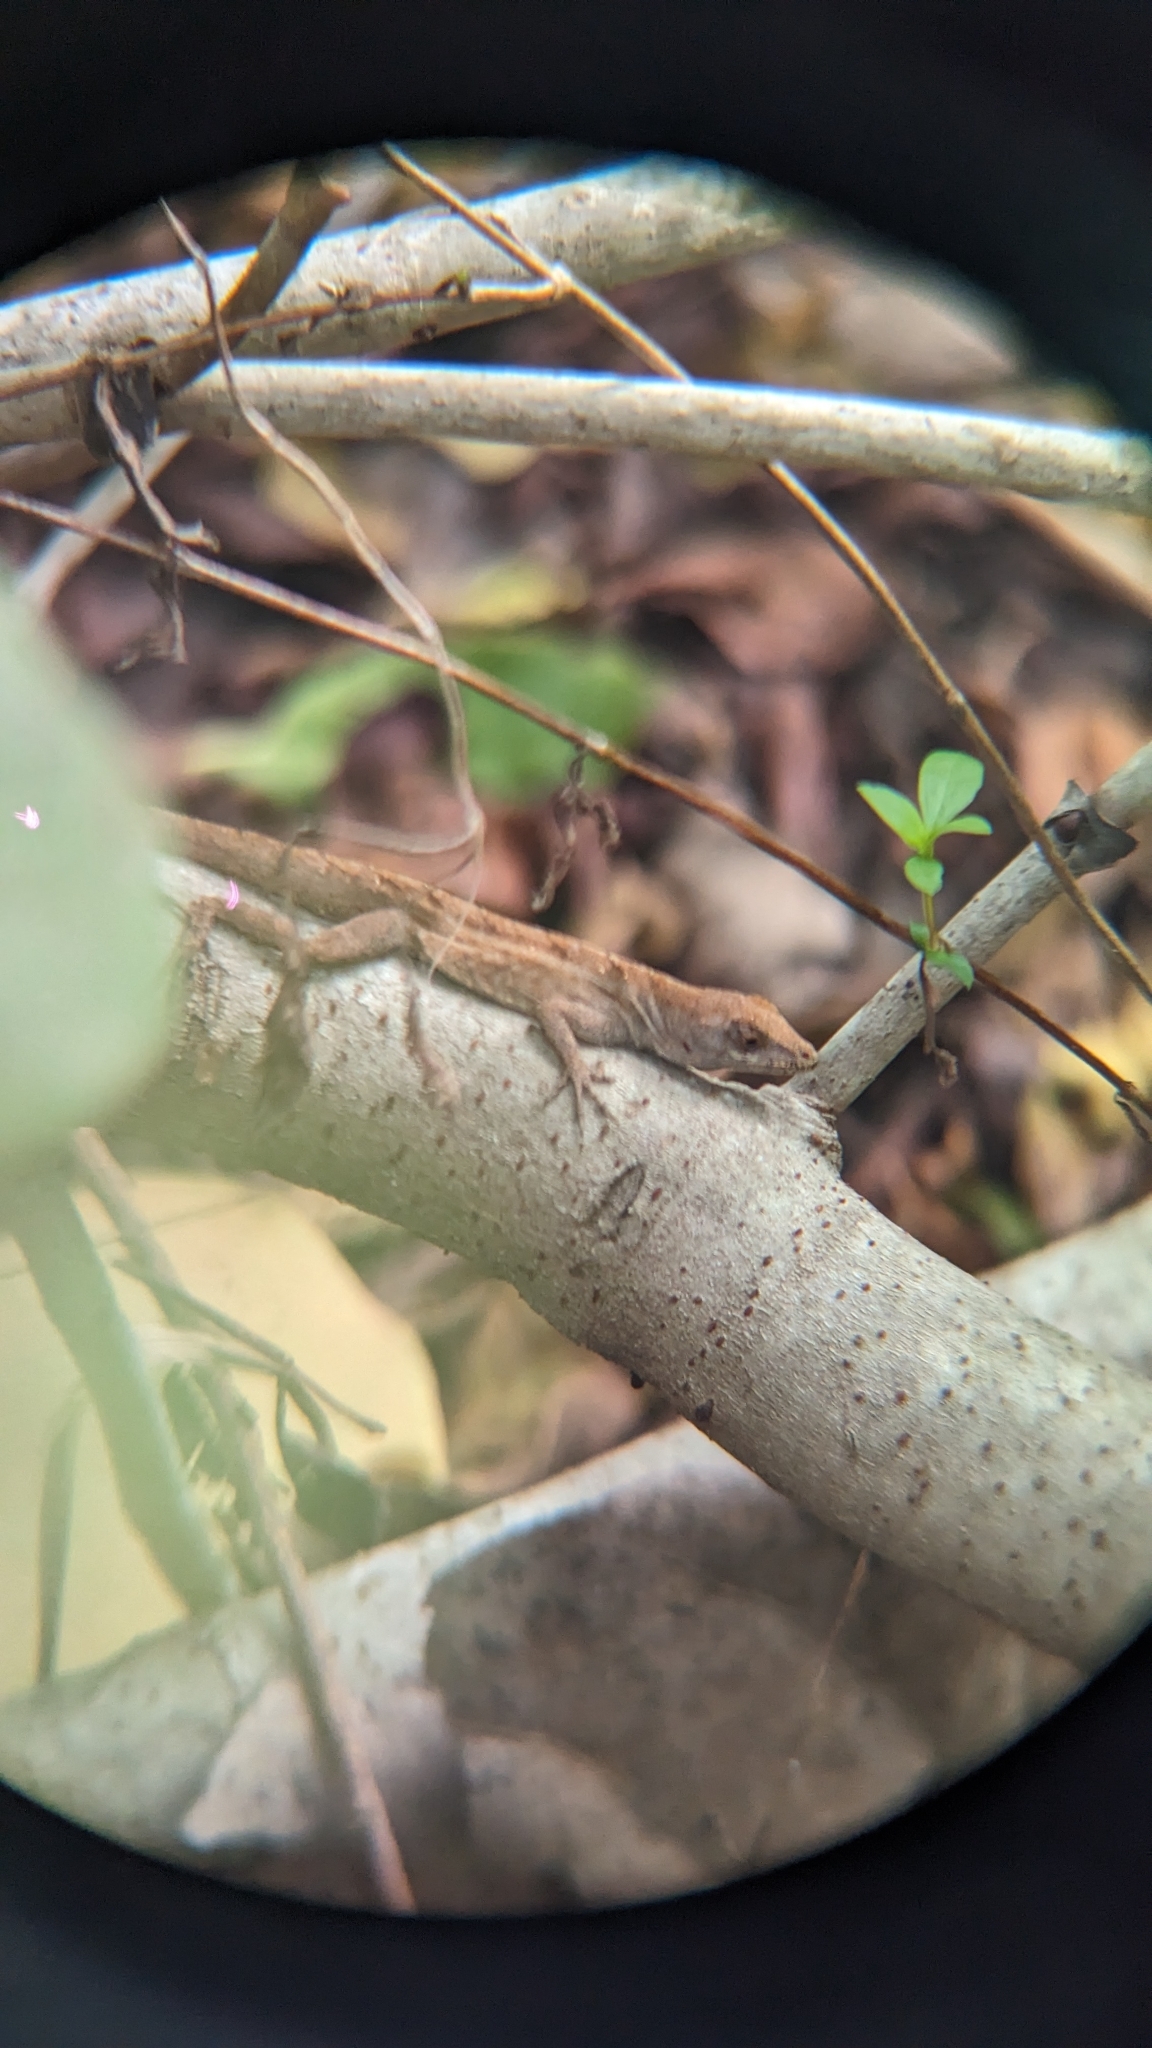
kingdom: Animalia
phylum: Chordata
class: Squamata
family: Dactyloidae
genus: Anolis
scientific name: Anolis sagrei
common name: Brown anole
